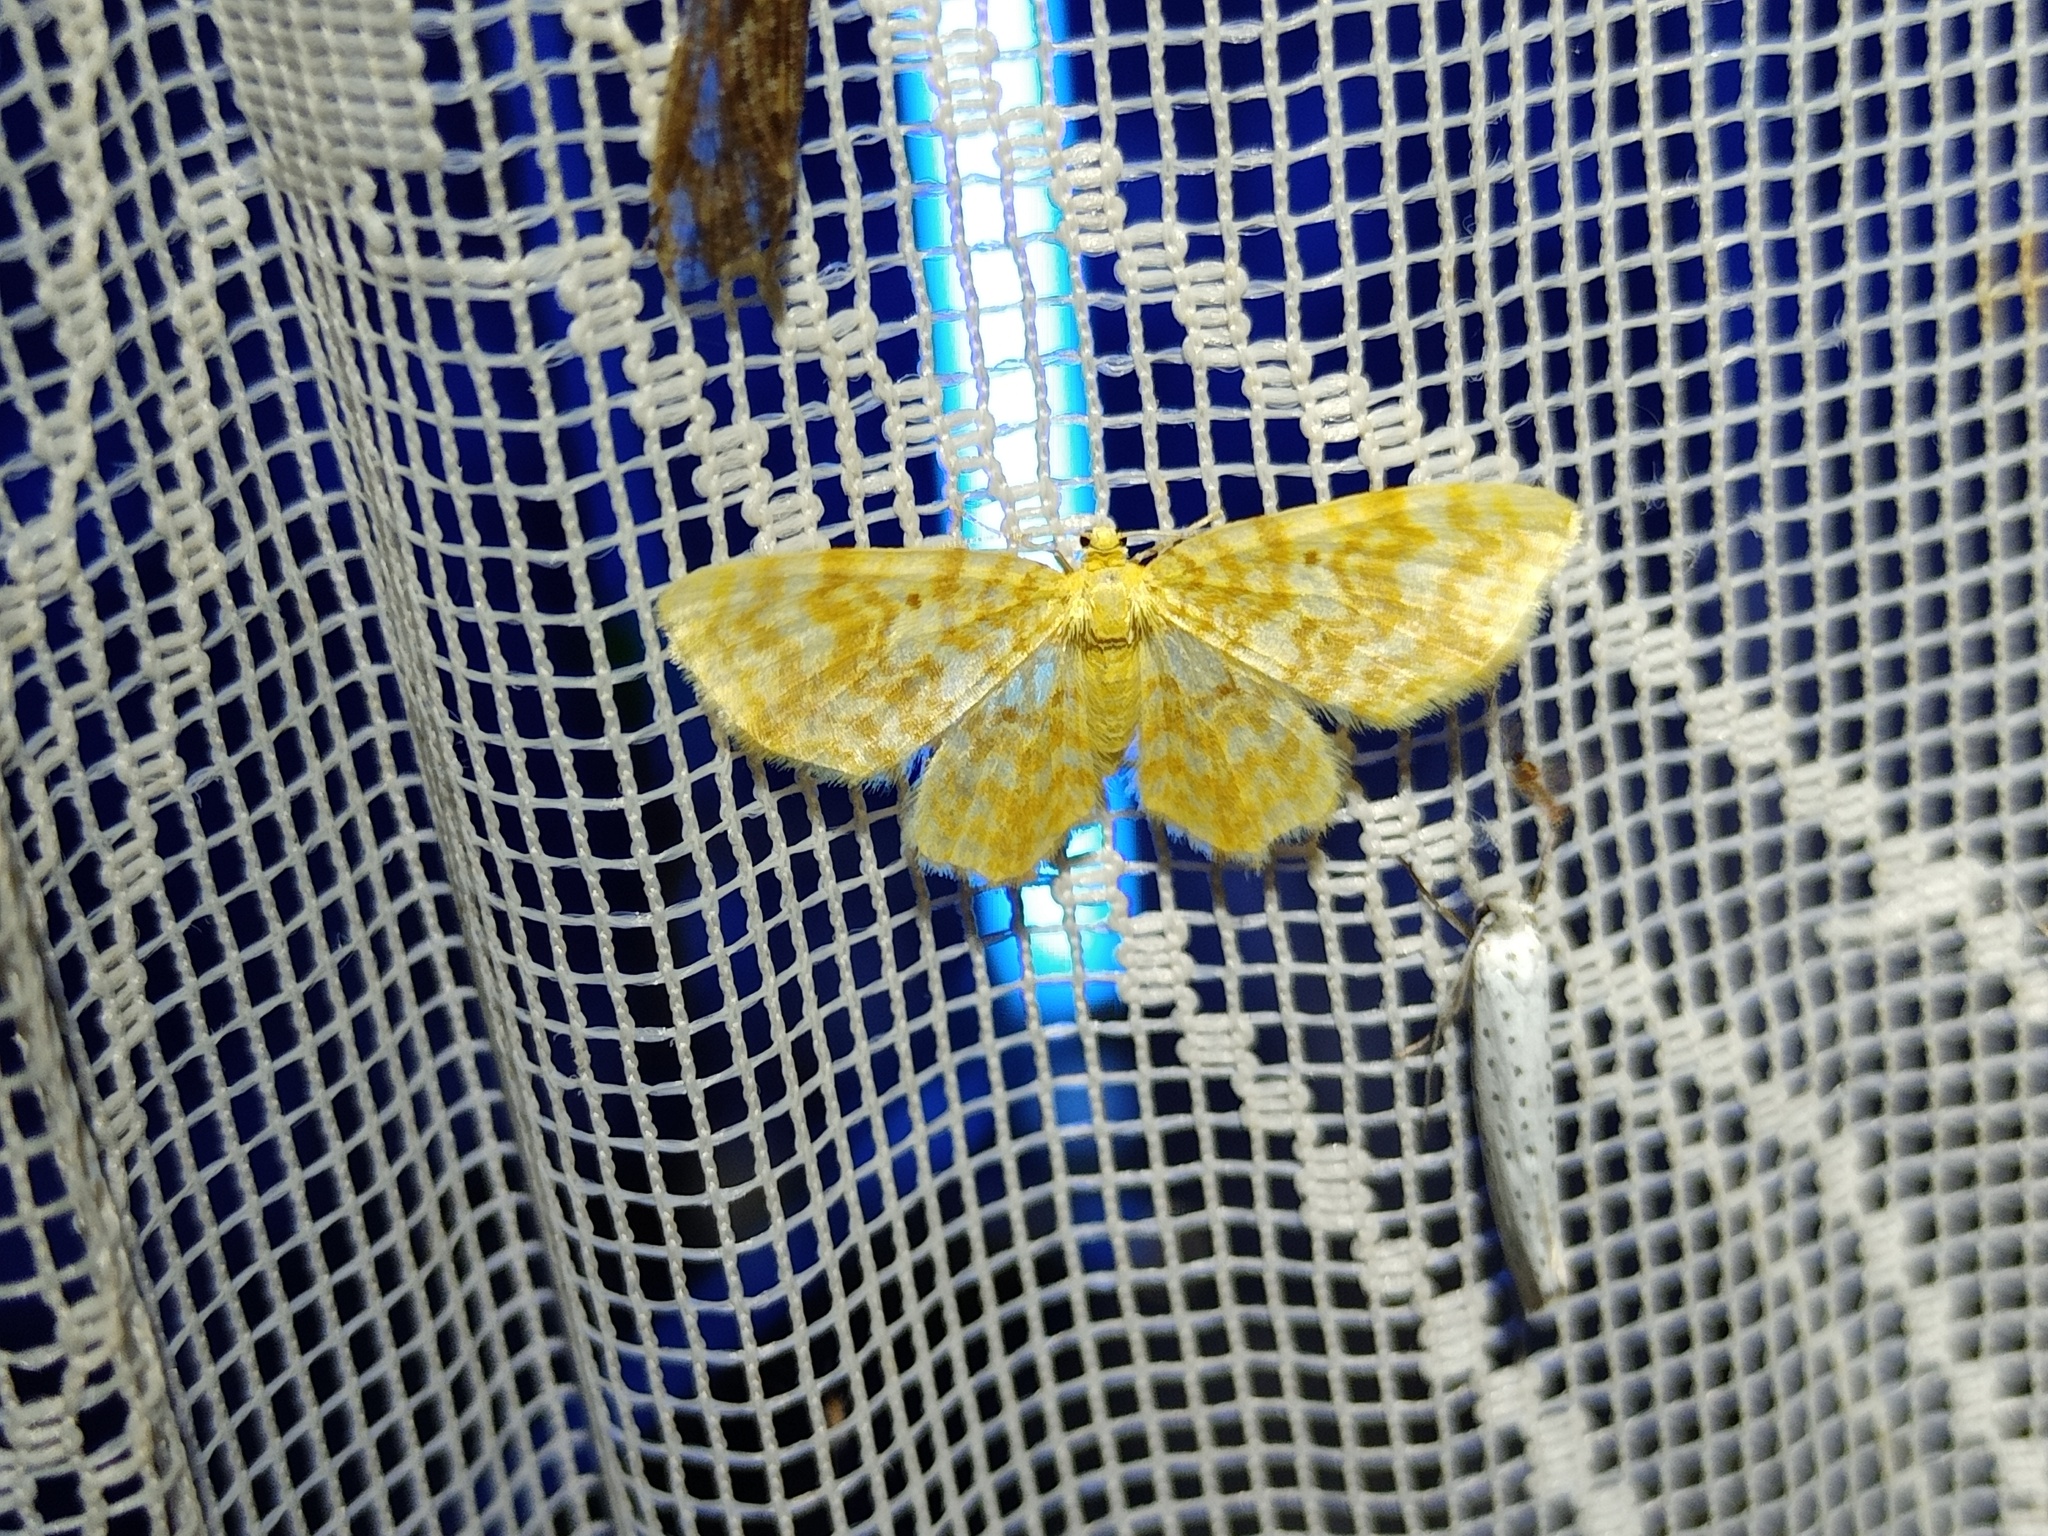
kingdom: Animalia
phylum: Arthropoda
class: Insecta
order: Lepidoptera
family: Geometridae
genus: Hydrelia
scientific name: Hydrelia flammeolaria
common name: Small yellow wave
